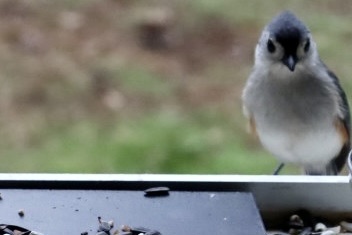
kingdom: Animalia
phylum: Chordata
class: Aves
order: Passeriformes
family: Paridae
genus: Baeolophus
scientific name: Baeolophus bicolor
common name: Tufted titmouse
